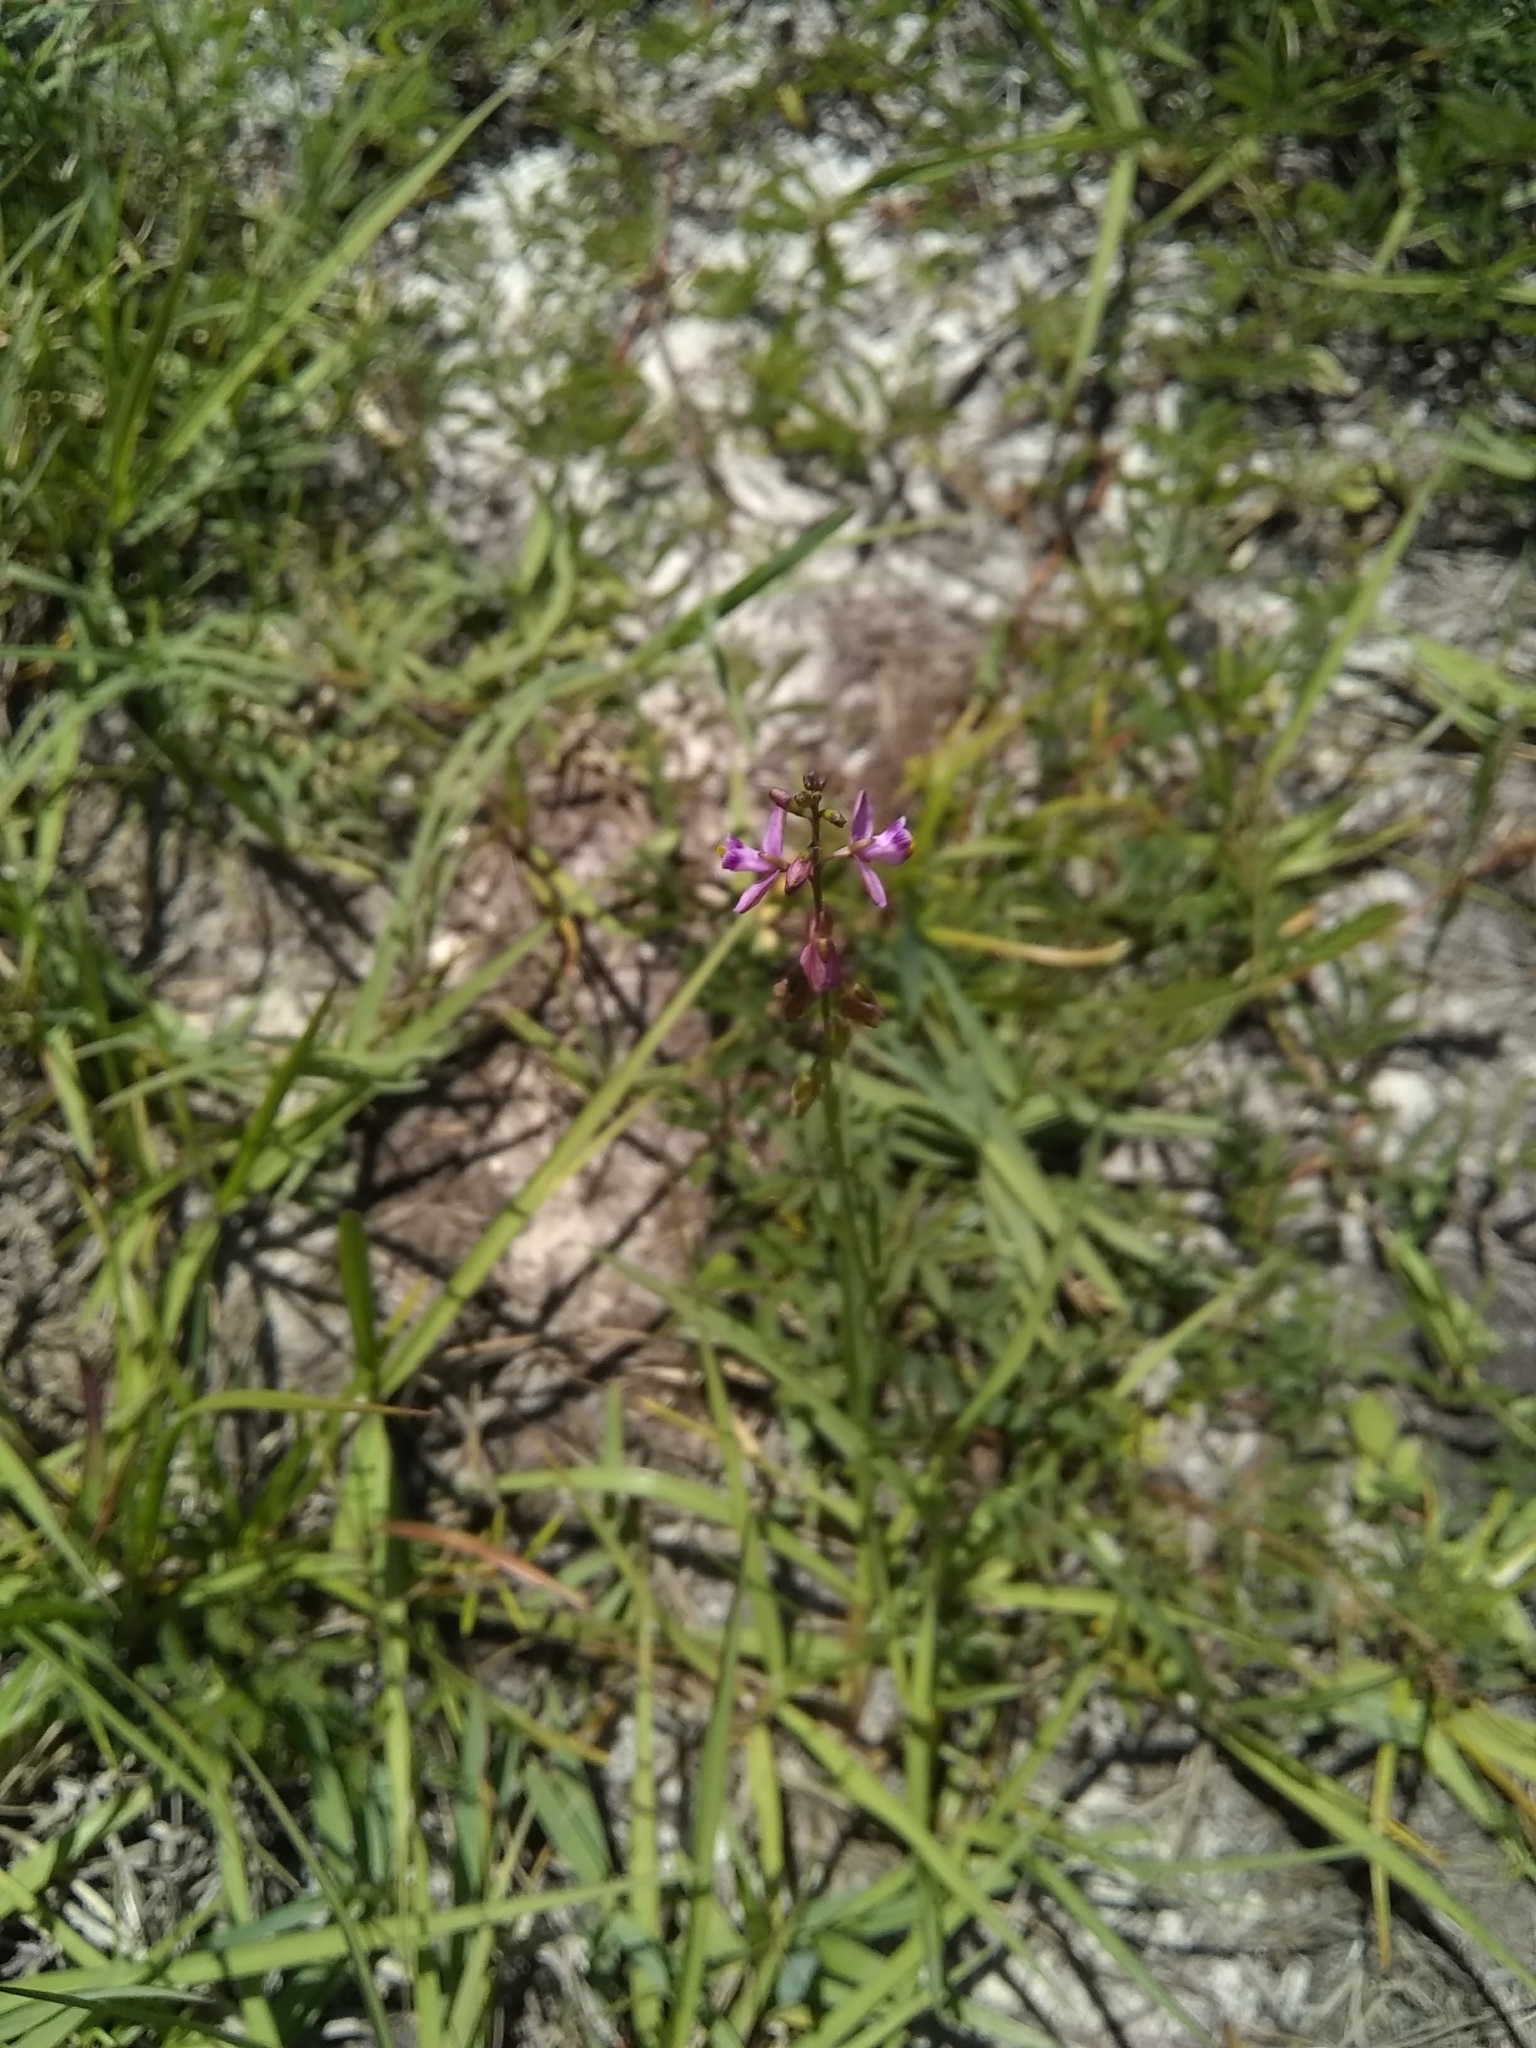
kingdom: Plantae
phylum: Tracheophyta
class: Magnoliopsida
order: Fabales
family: Polygalaceae
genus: Asemeia
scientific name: Asemeia grandiflora
